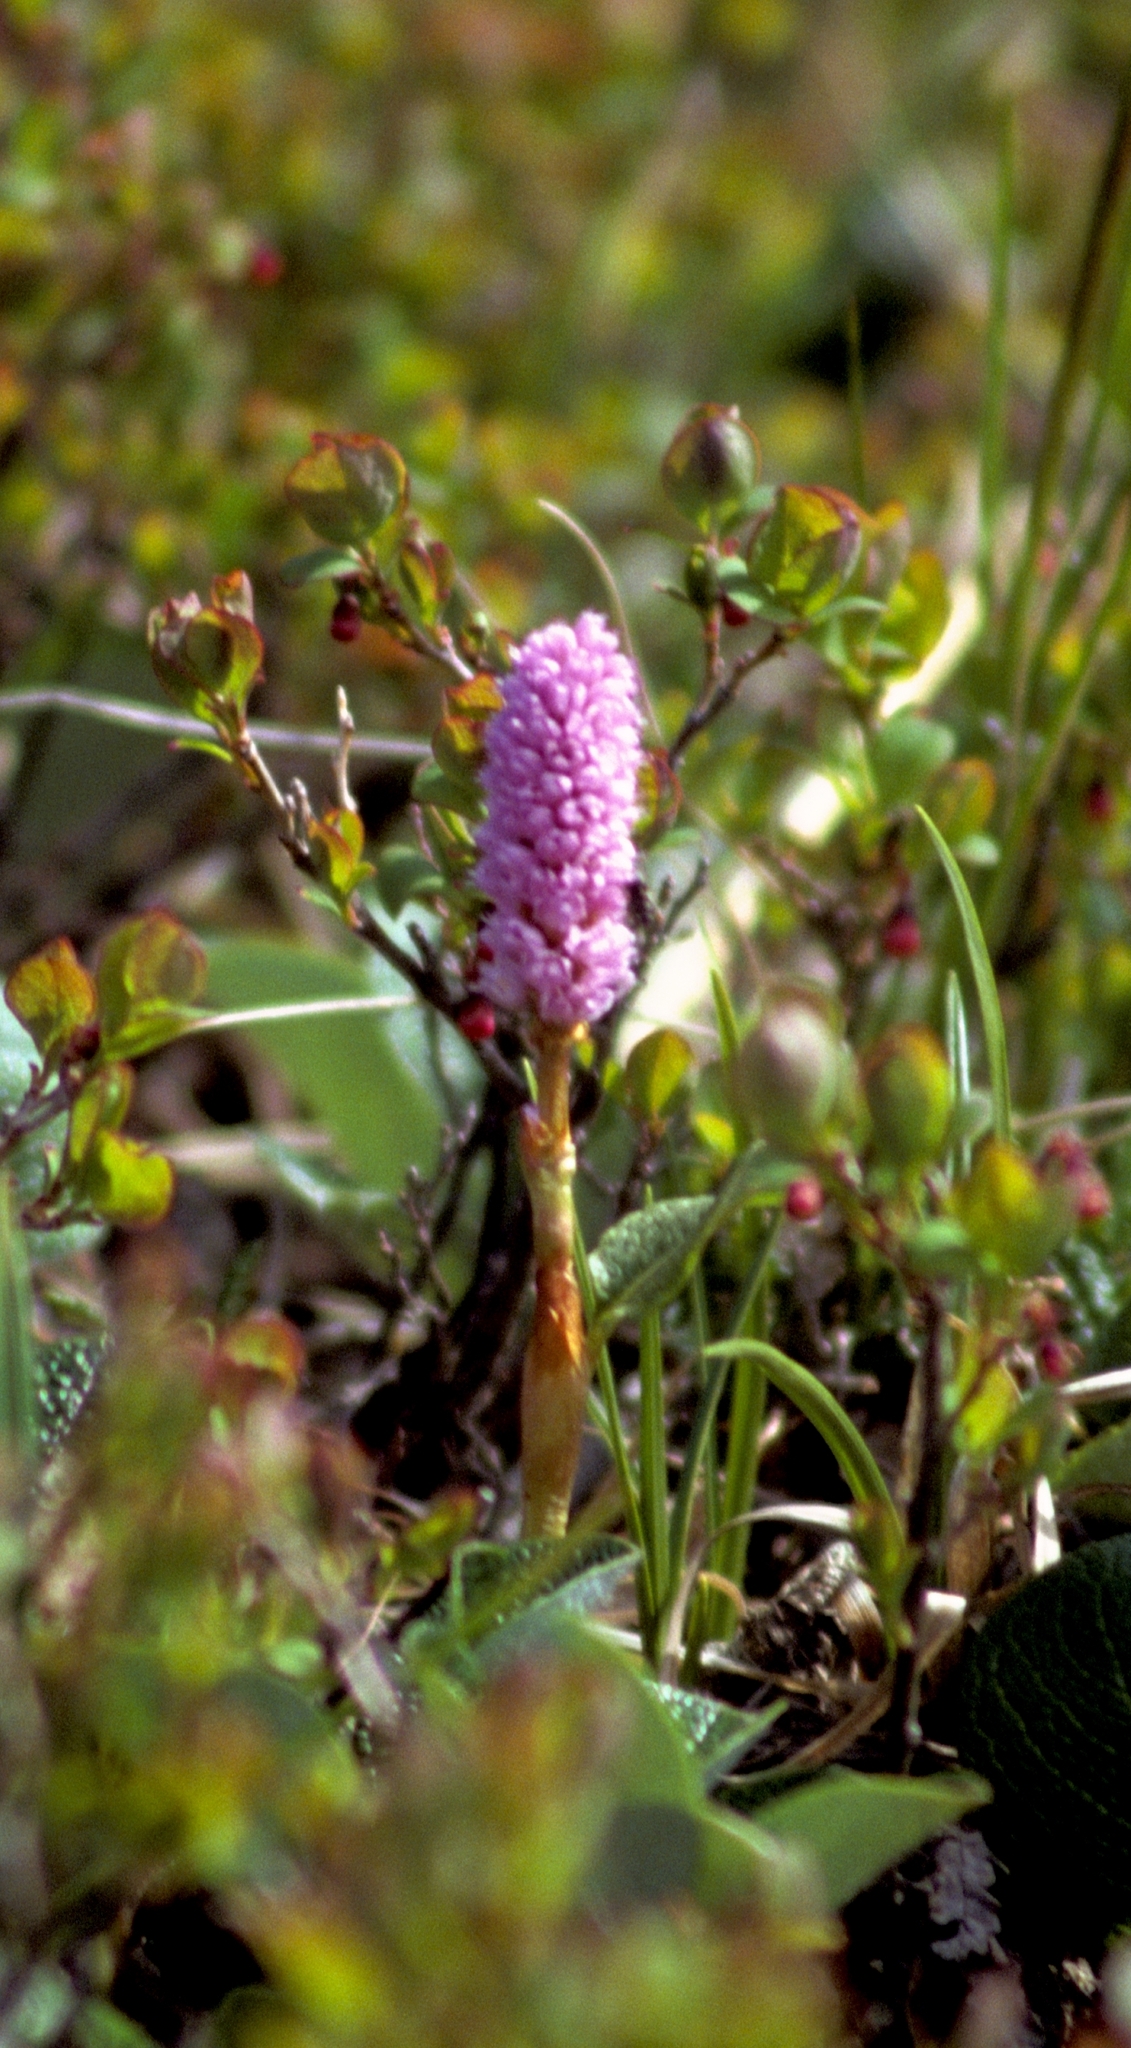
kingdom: Plantae
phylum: Tracheophyta
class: Magnoliopsida
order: Caryophyllales
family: Polygonaceae
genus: Bistorta
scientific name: Bistorta plumosa
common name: Meadow bistort
